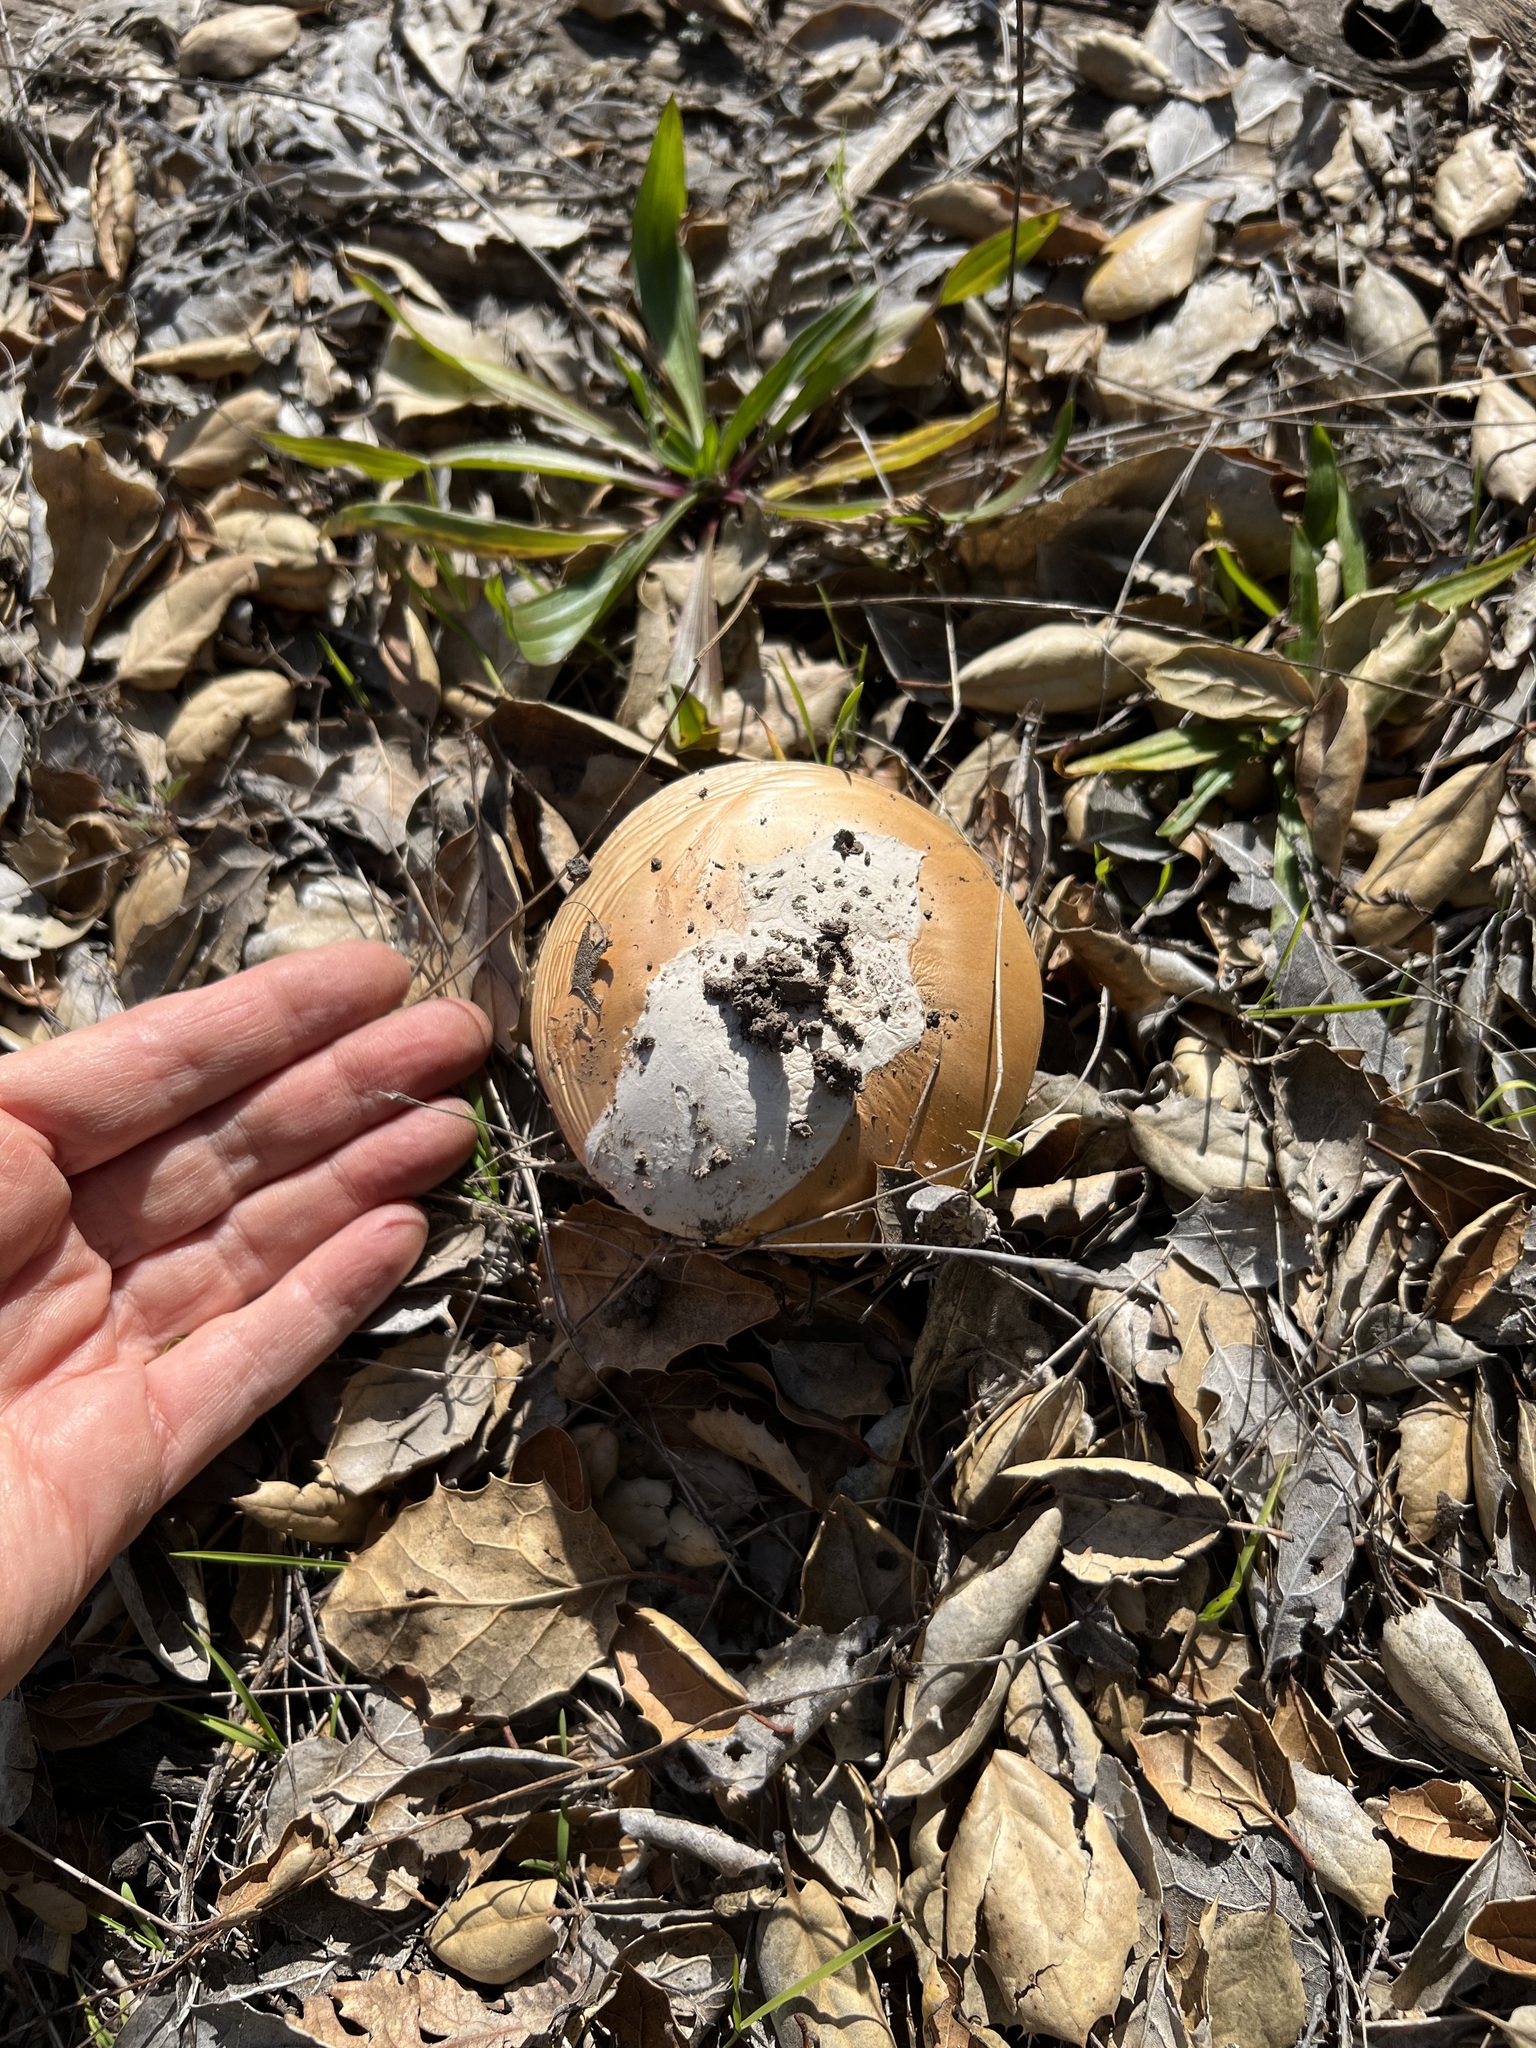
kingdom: Fungi
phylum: Basidiomycota
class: Agaricomycetes
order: Agaricales
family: Amanitaceae
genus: Amanita
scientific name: Amanita velosa
